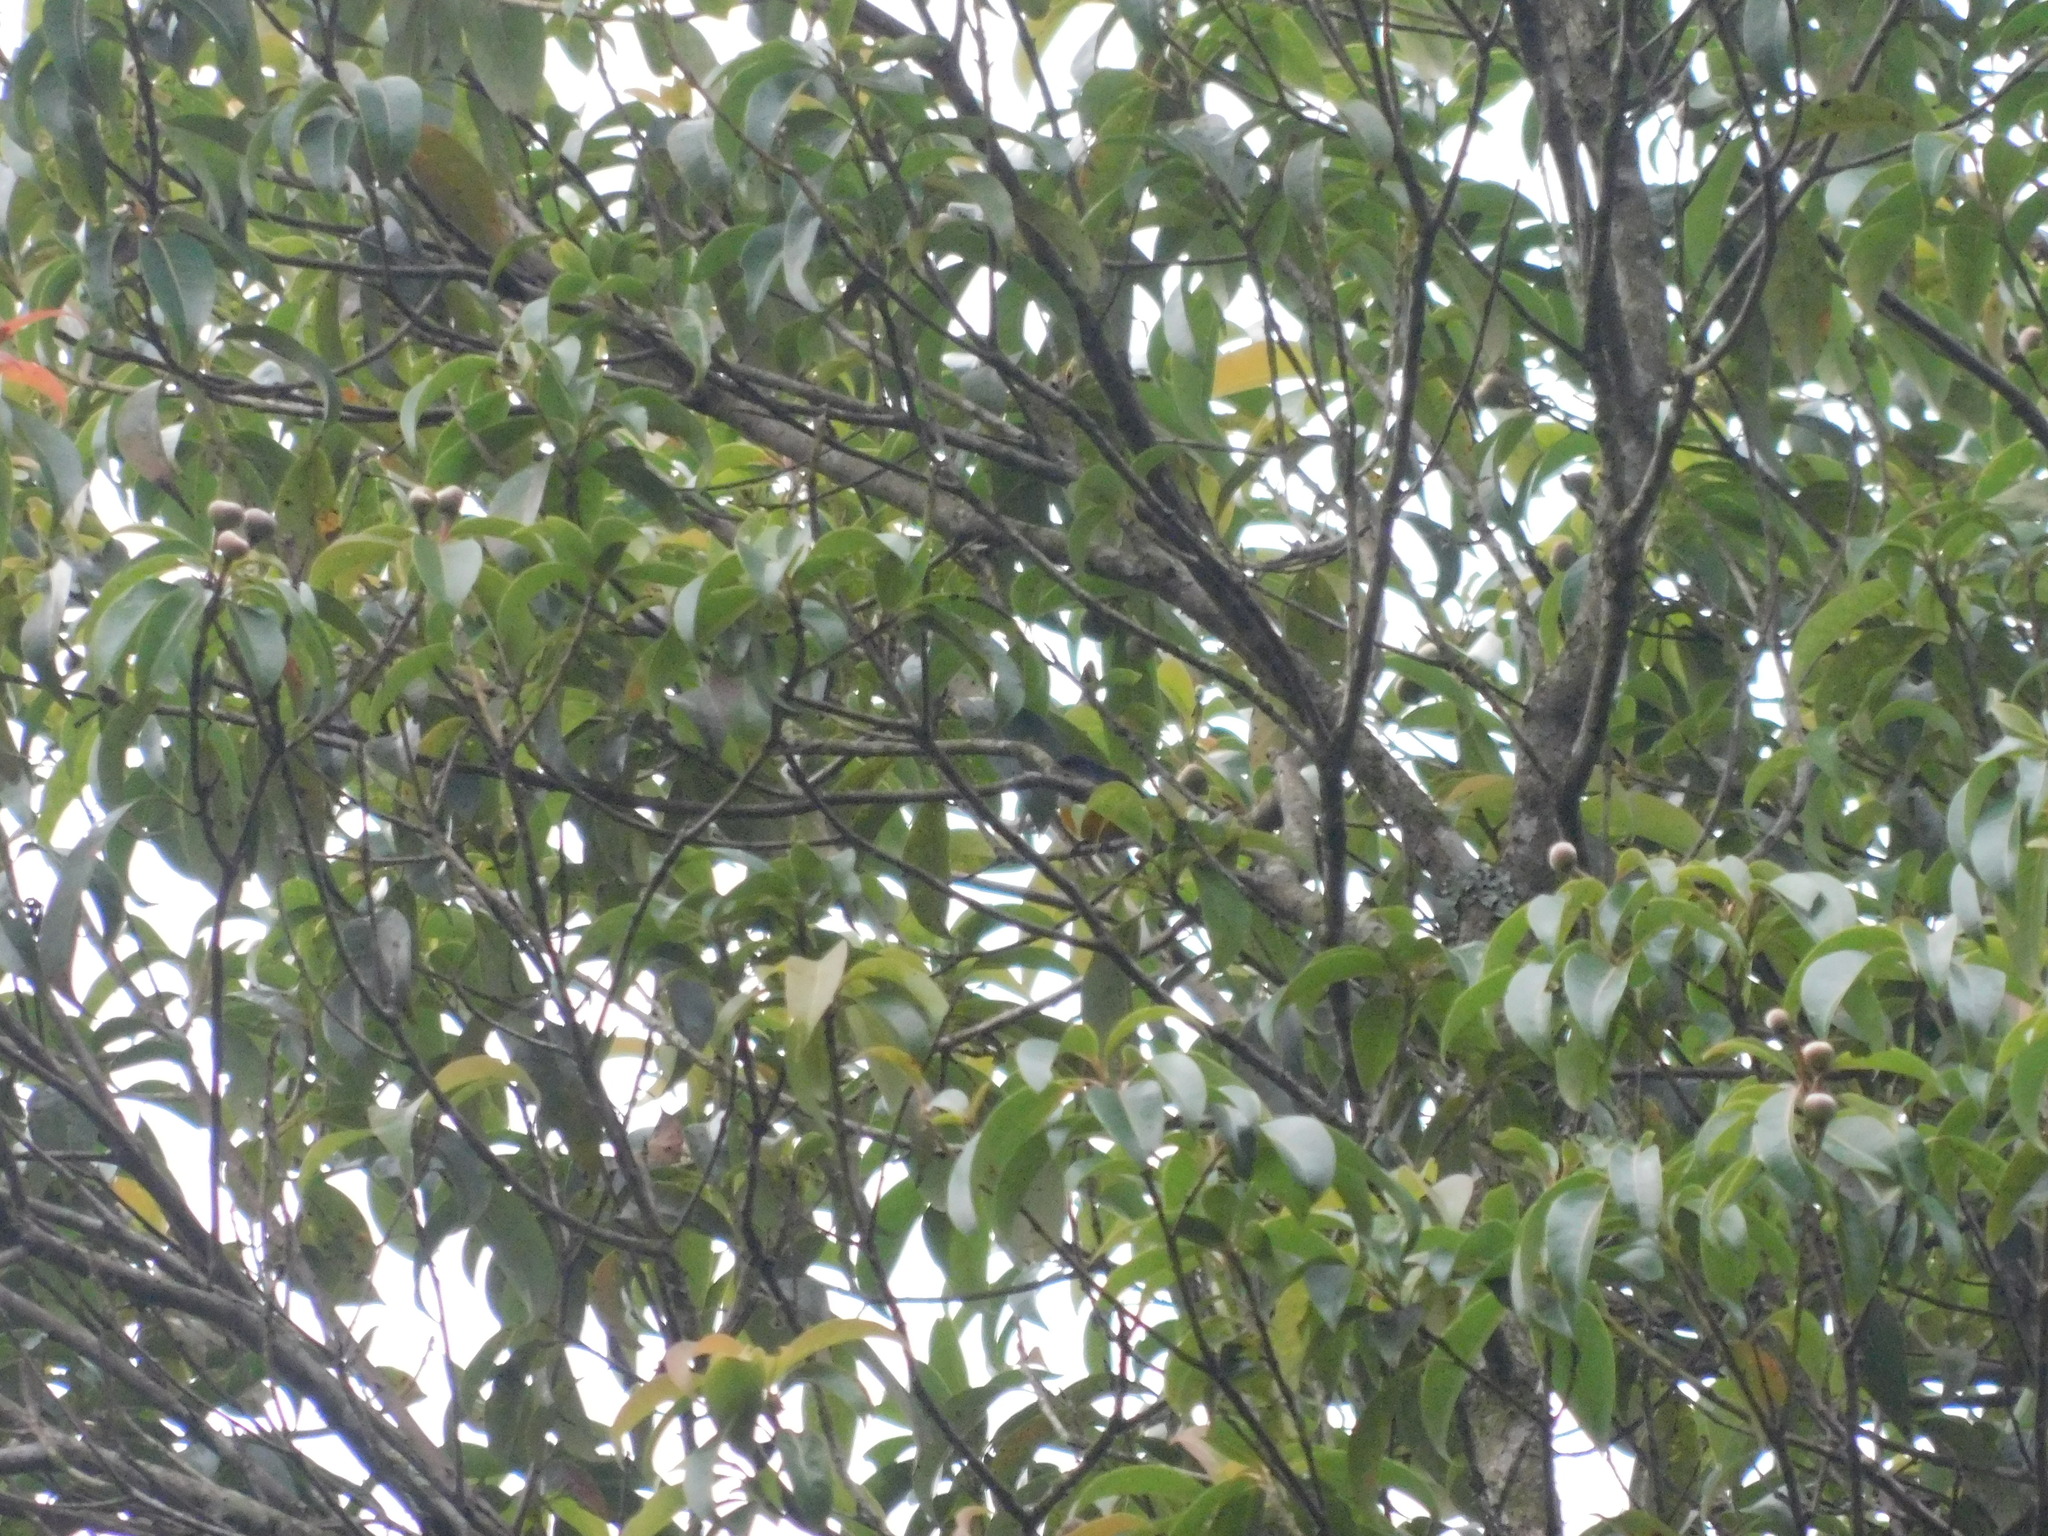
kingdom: Animalia
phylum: Chordata
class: Aves
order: Passeriformes
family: Dicaeidae
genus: Dicaeum
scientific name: Dicaeum trigonostigma
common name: Orange-bellied flowerpecker
